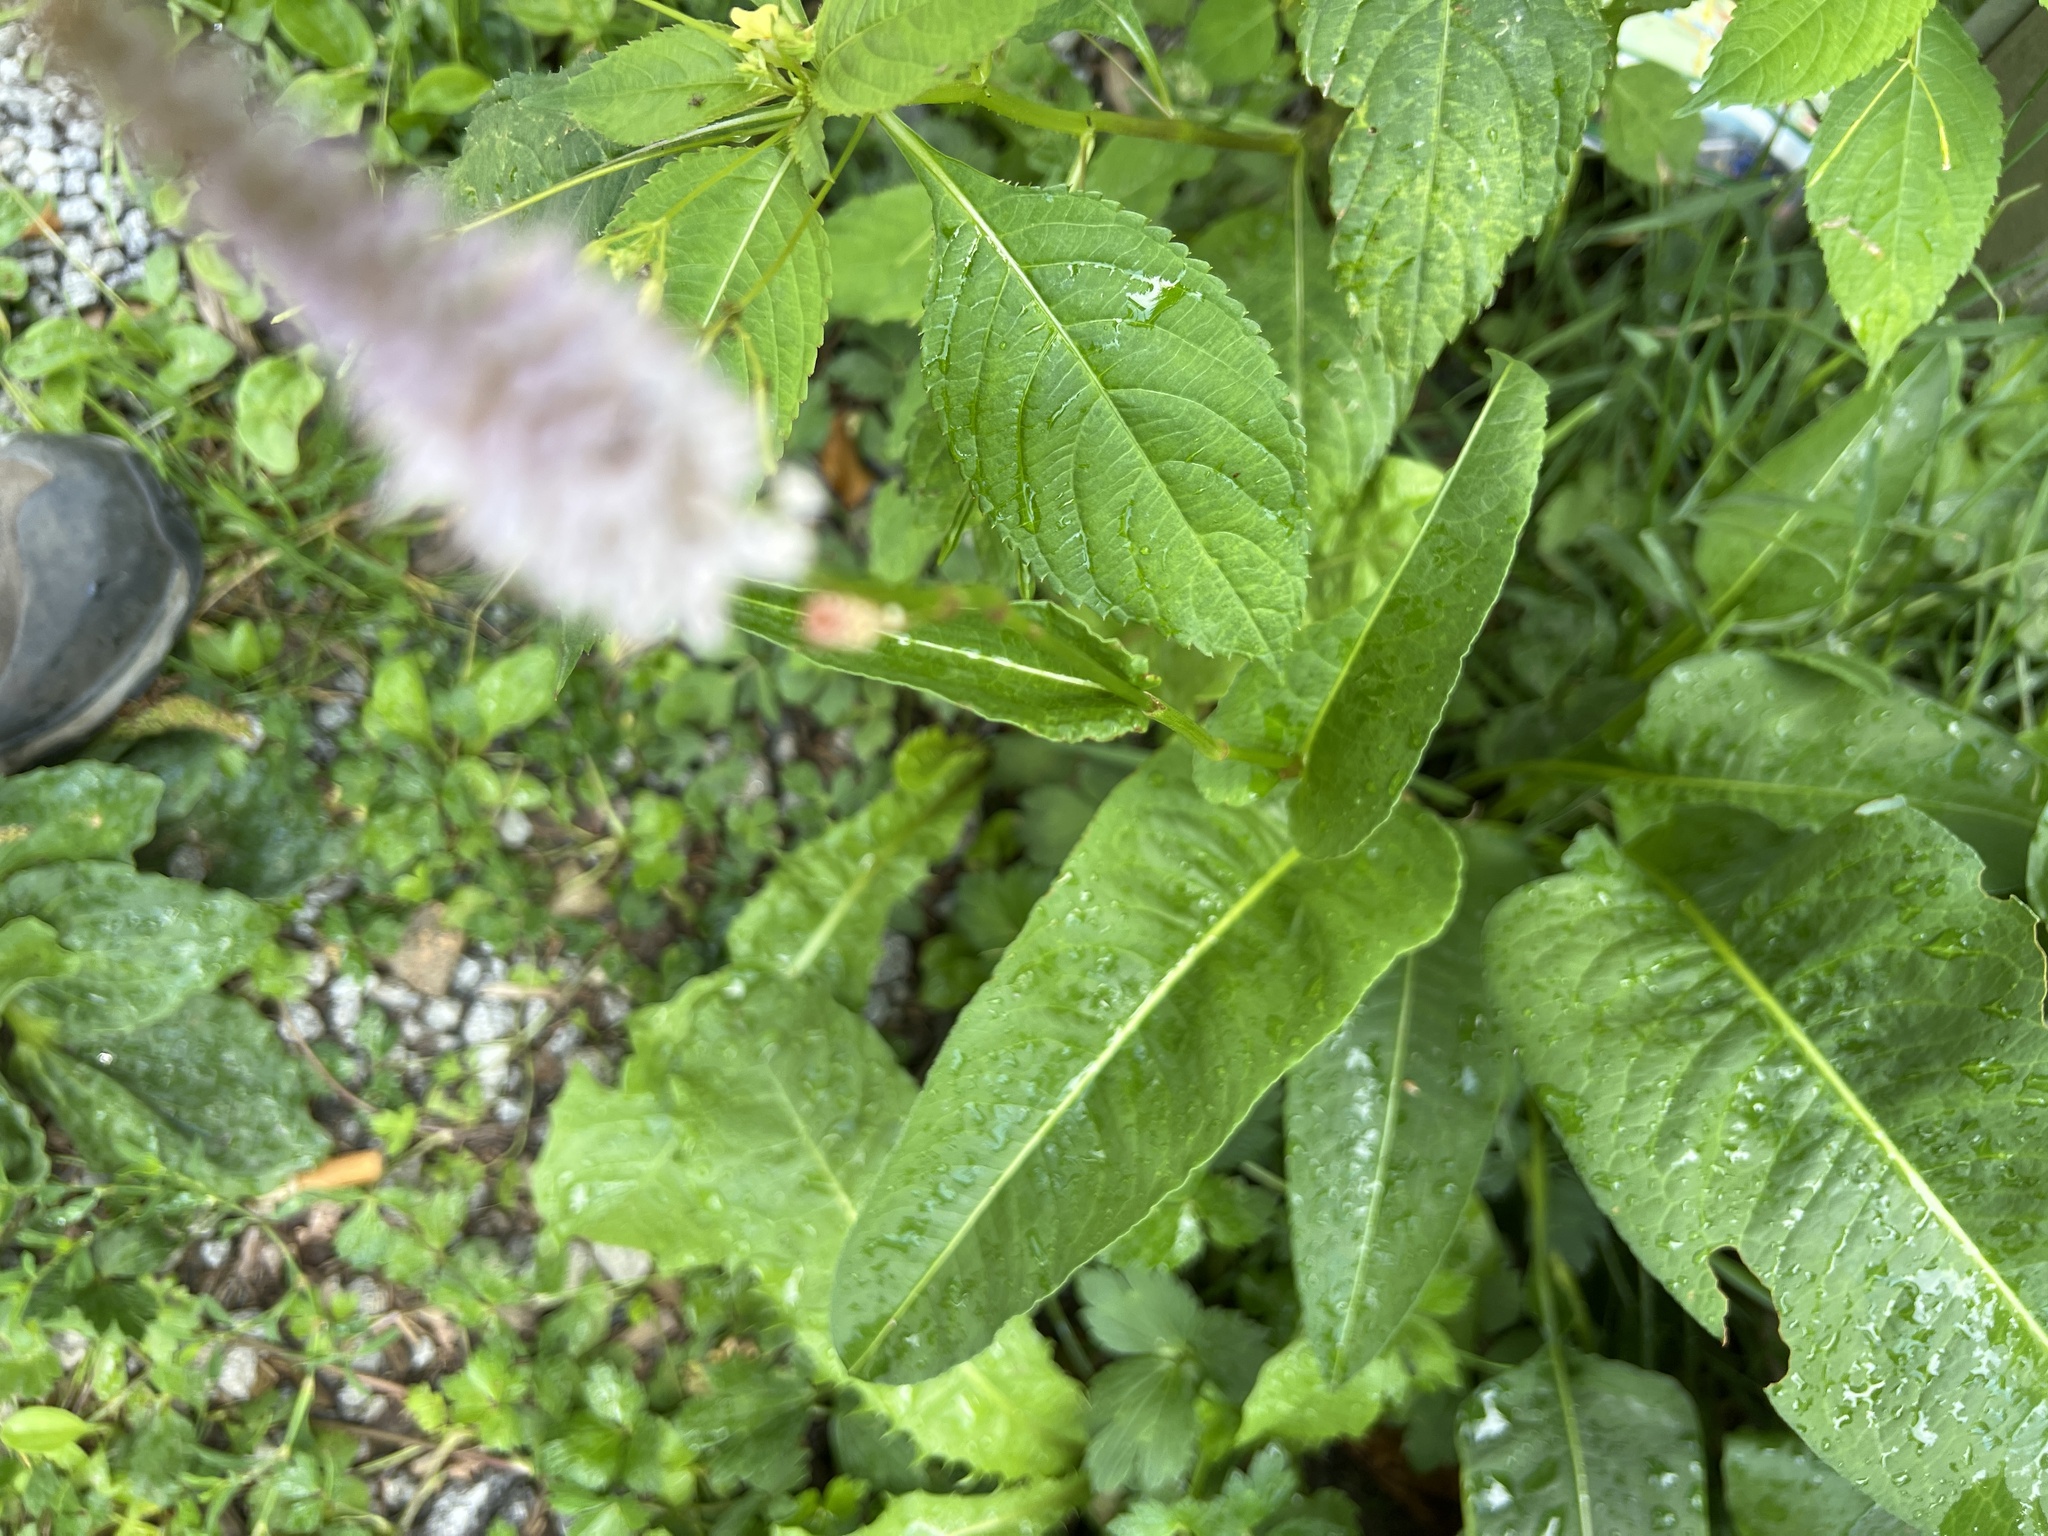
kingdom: Plantae
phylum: Tracheophyta
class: Magnoliopsida
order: Caryophyllales
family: Polygonaceae
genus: Bistorta
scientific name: Bistorta officinalis
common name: Common bistort
